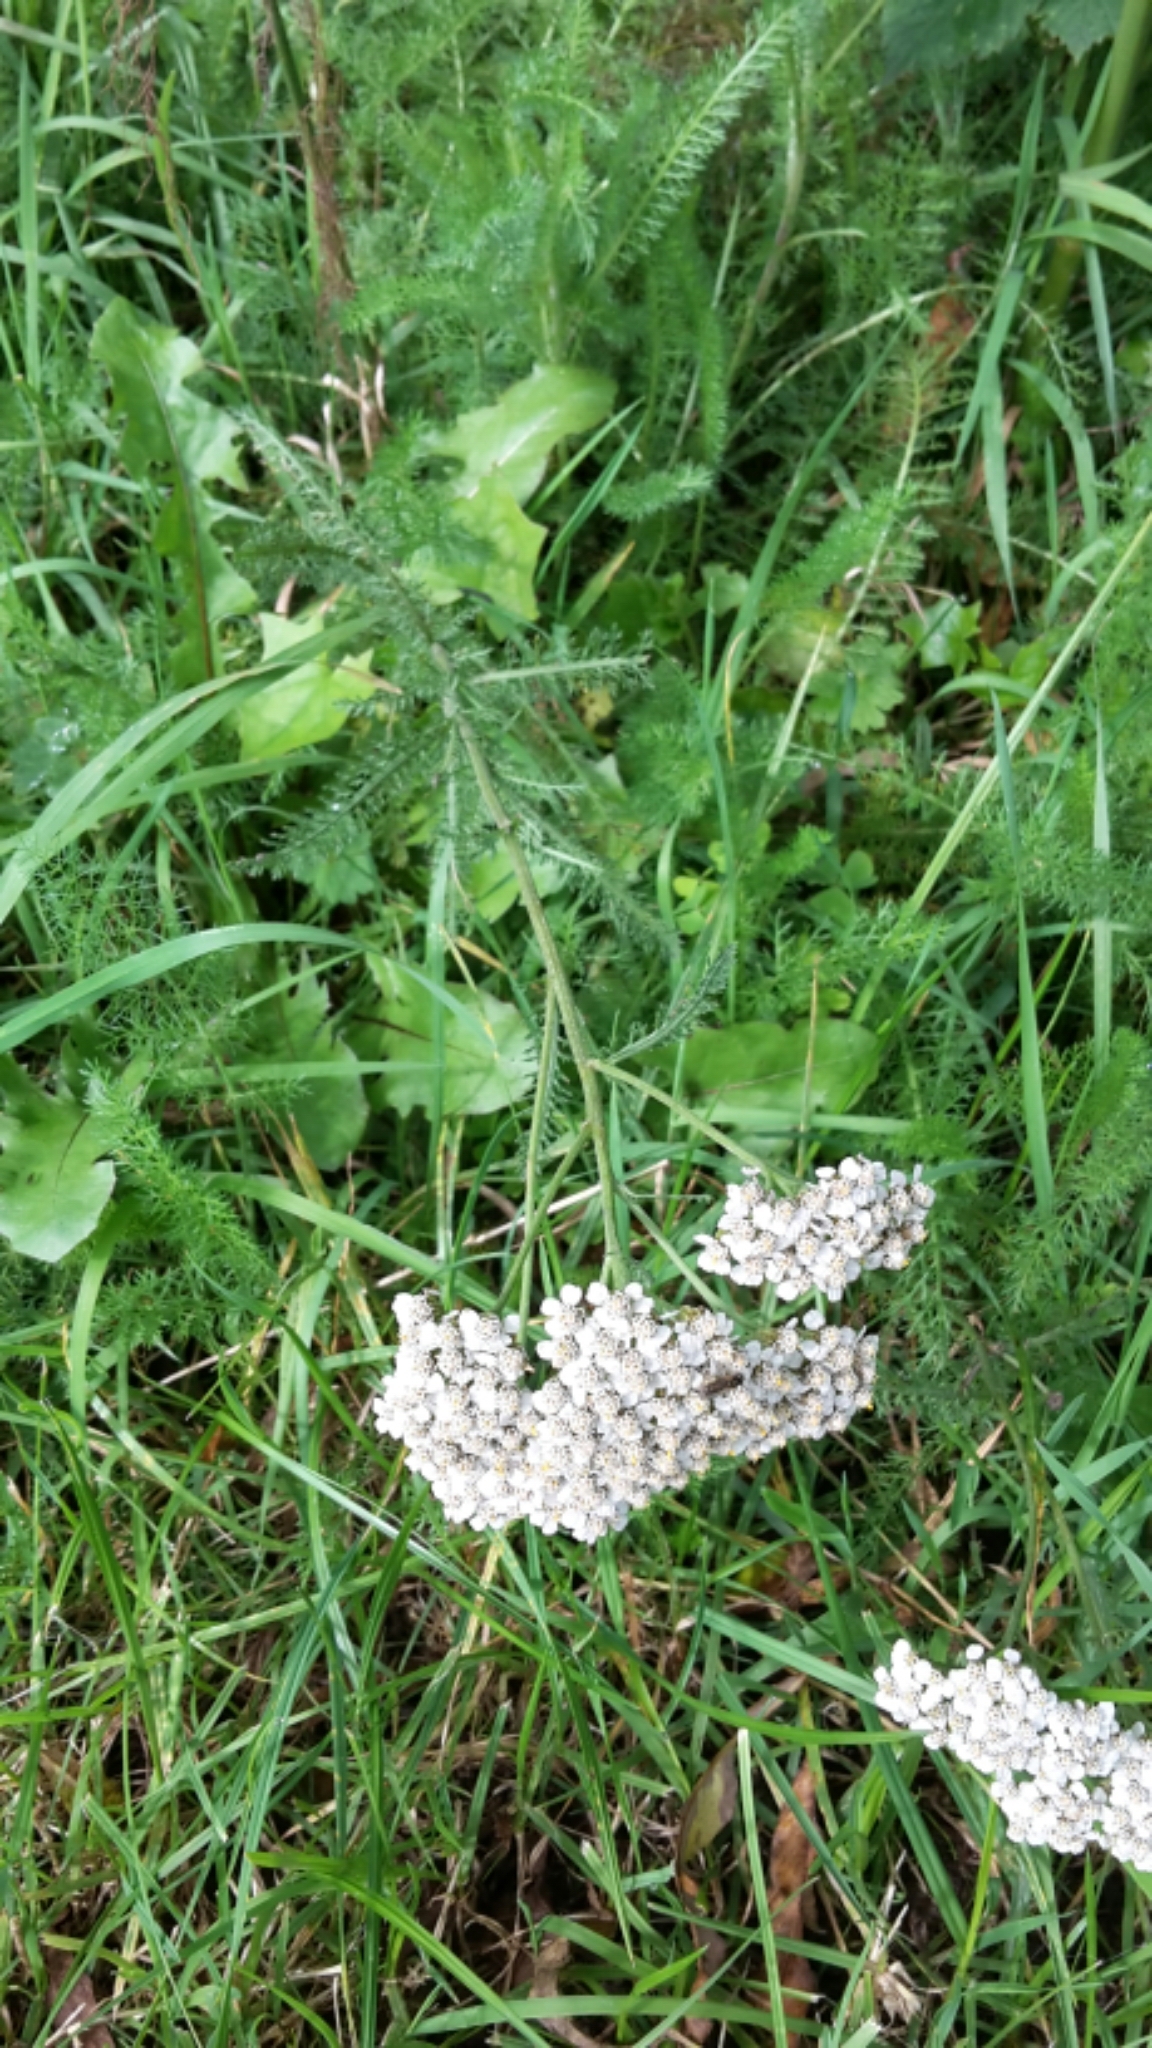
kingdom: Plantae
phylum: Tracheophyta
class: Magnoliopsida
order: Asterales
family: Asteraceae
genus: Achillea
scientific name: Achillea millefolium
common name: Yarrow
